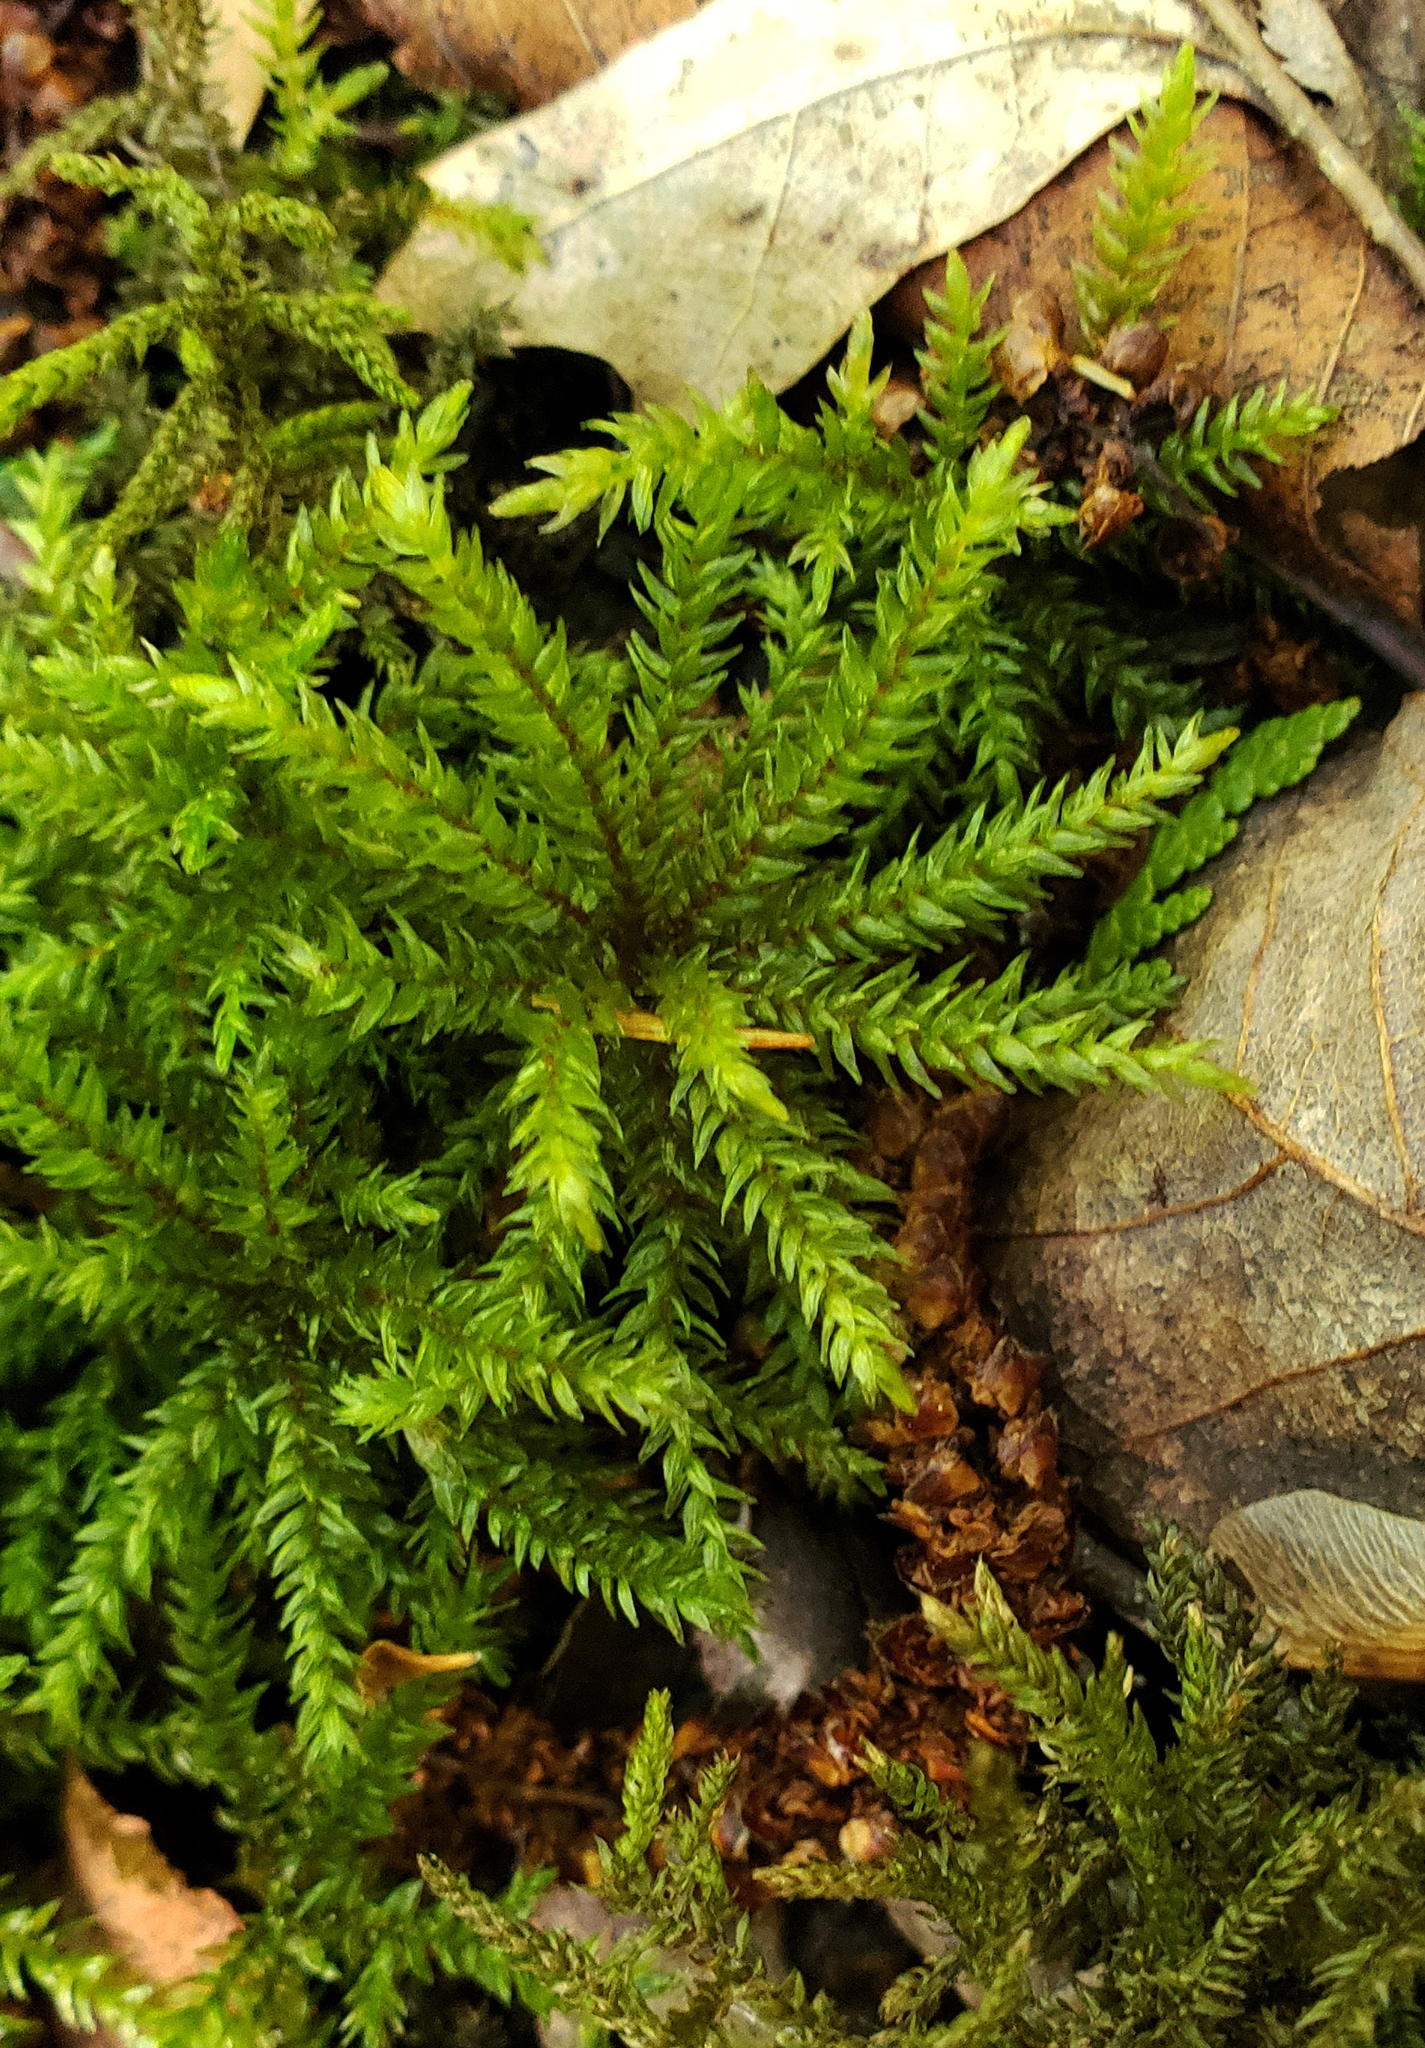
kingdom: Plantae
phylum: Bryophyta
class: Bryopsida
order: Hypnales
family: Climaciaceae
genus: Climacium
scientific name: Climacium dendroides
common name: Northern tree moss
